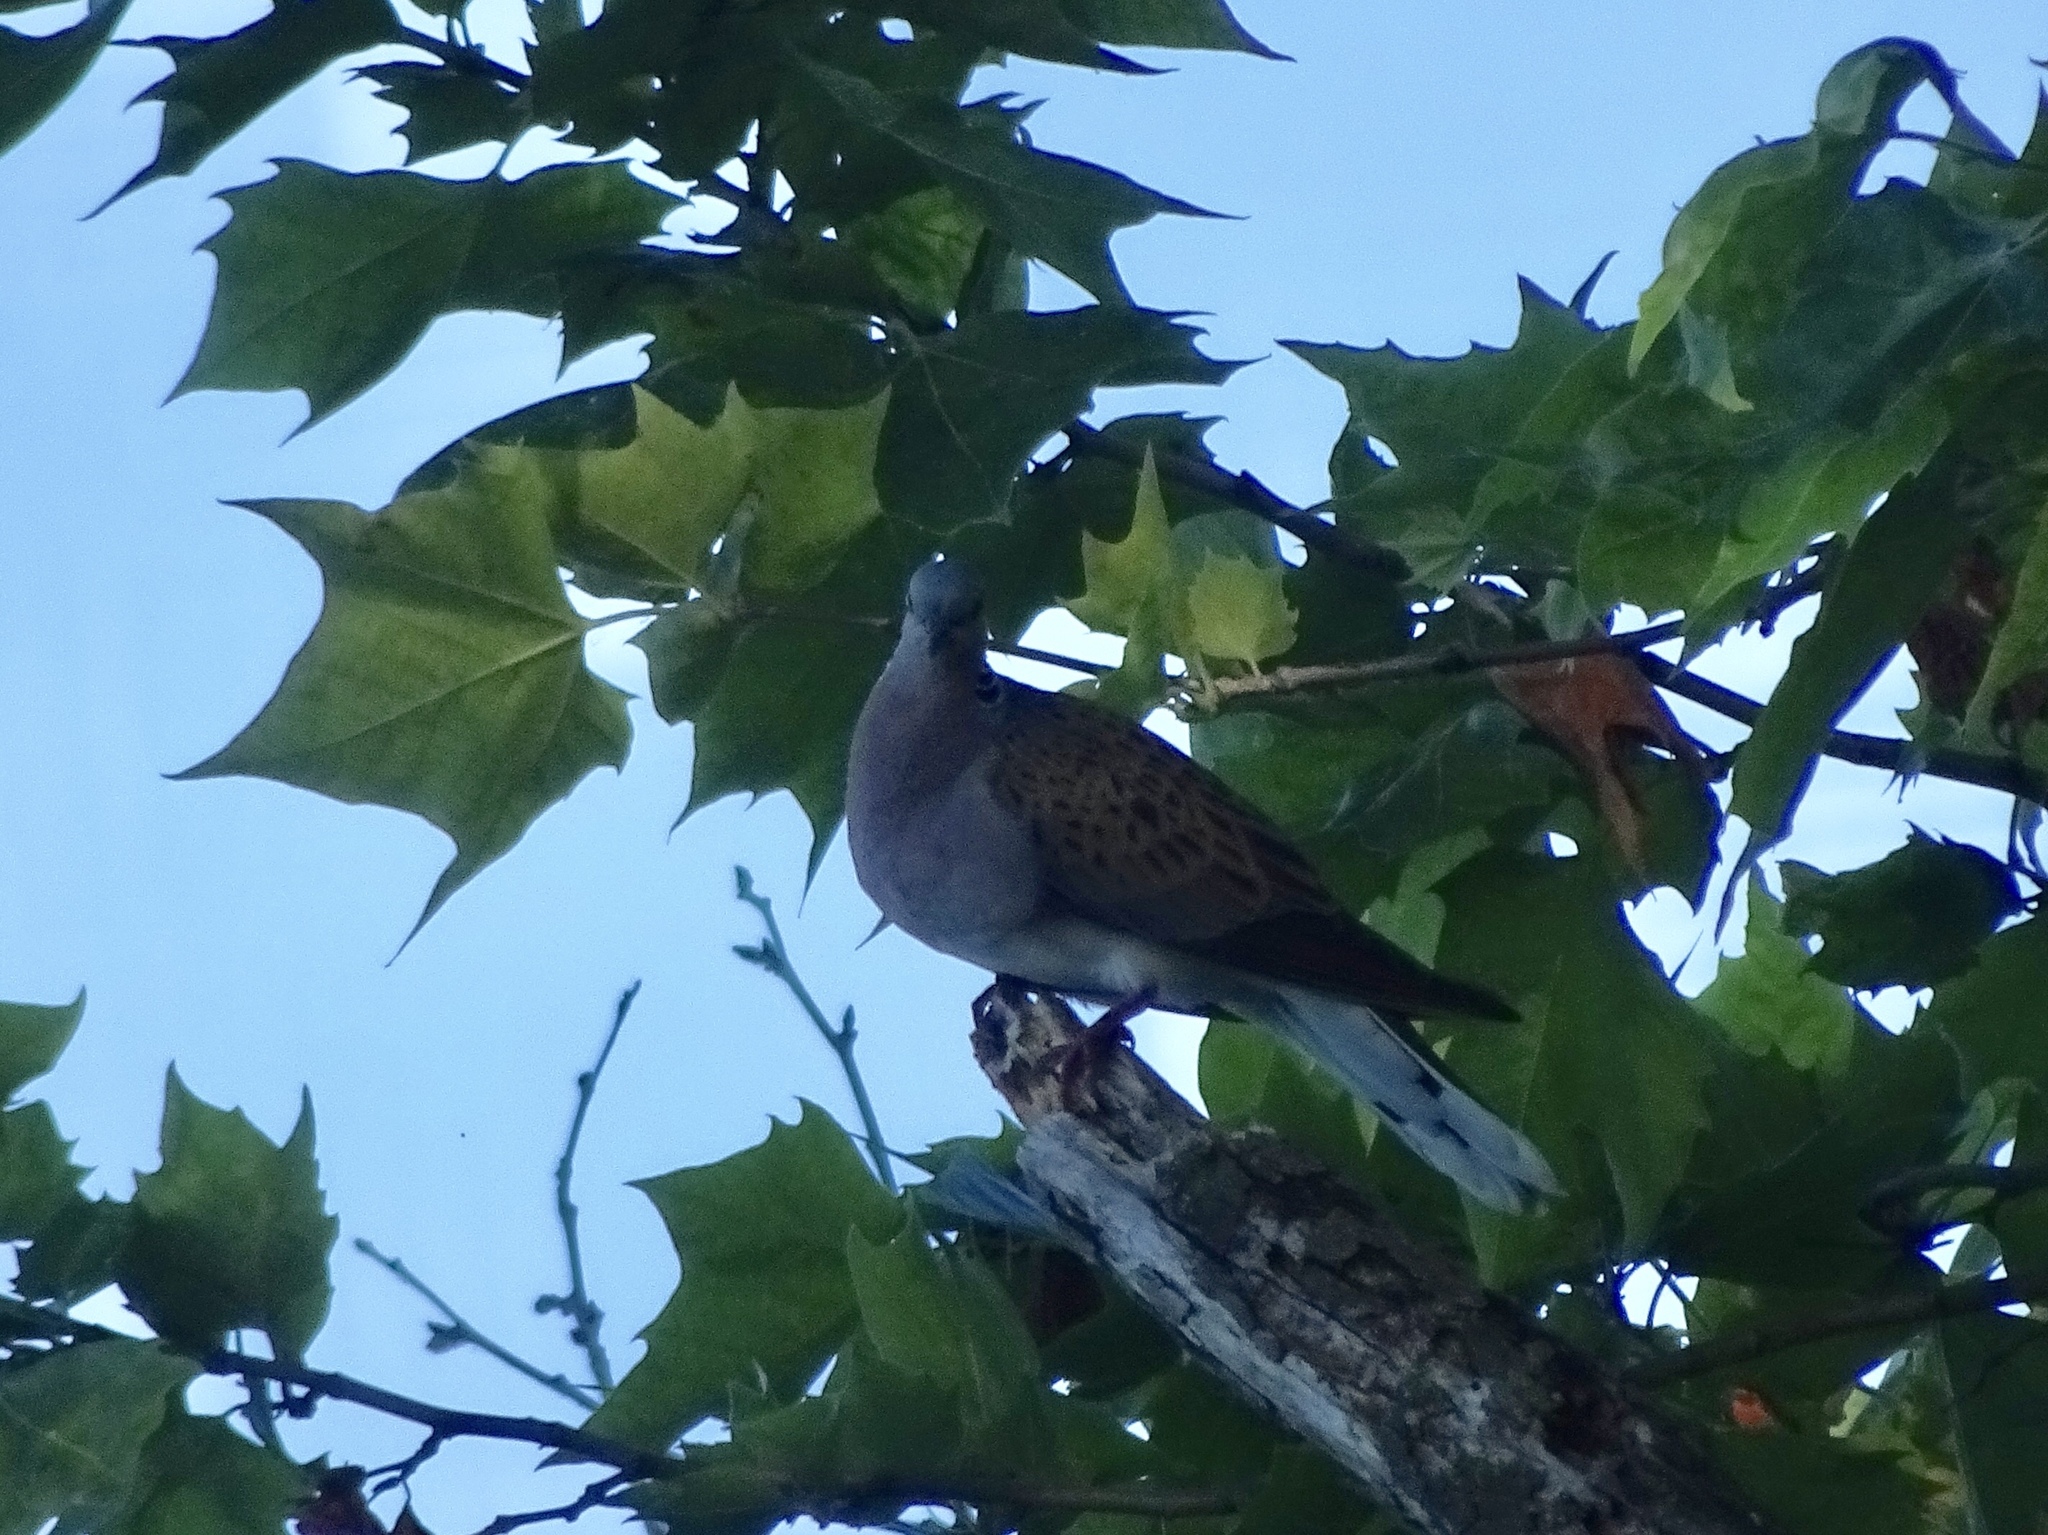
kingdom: Animalia
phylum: Chordata
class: Aves
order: Columbiformes
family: Columbidae
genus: Streptopelia
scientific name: Streptopelia turtur
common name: European turtle dove
